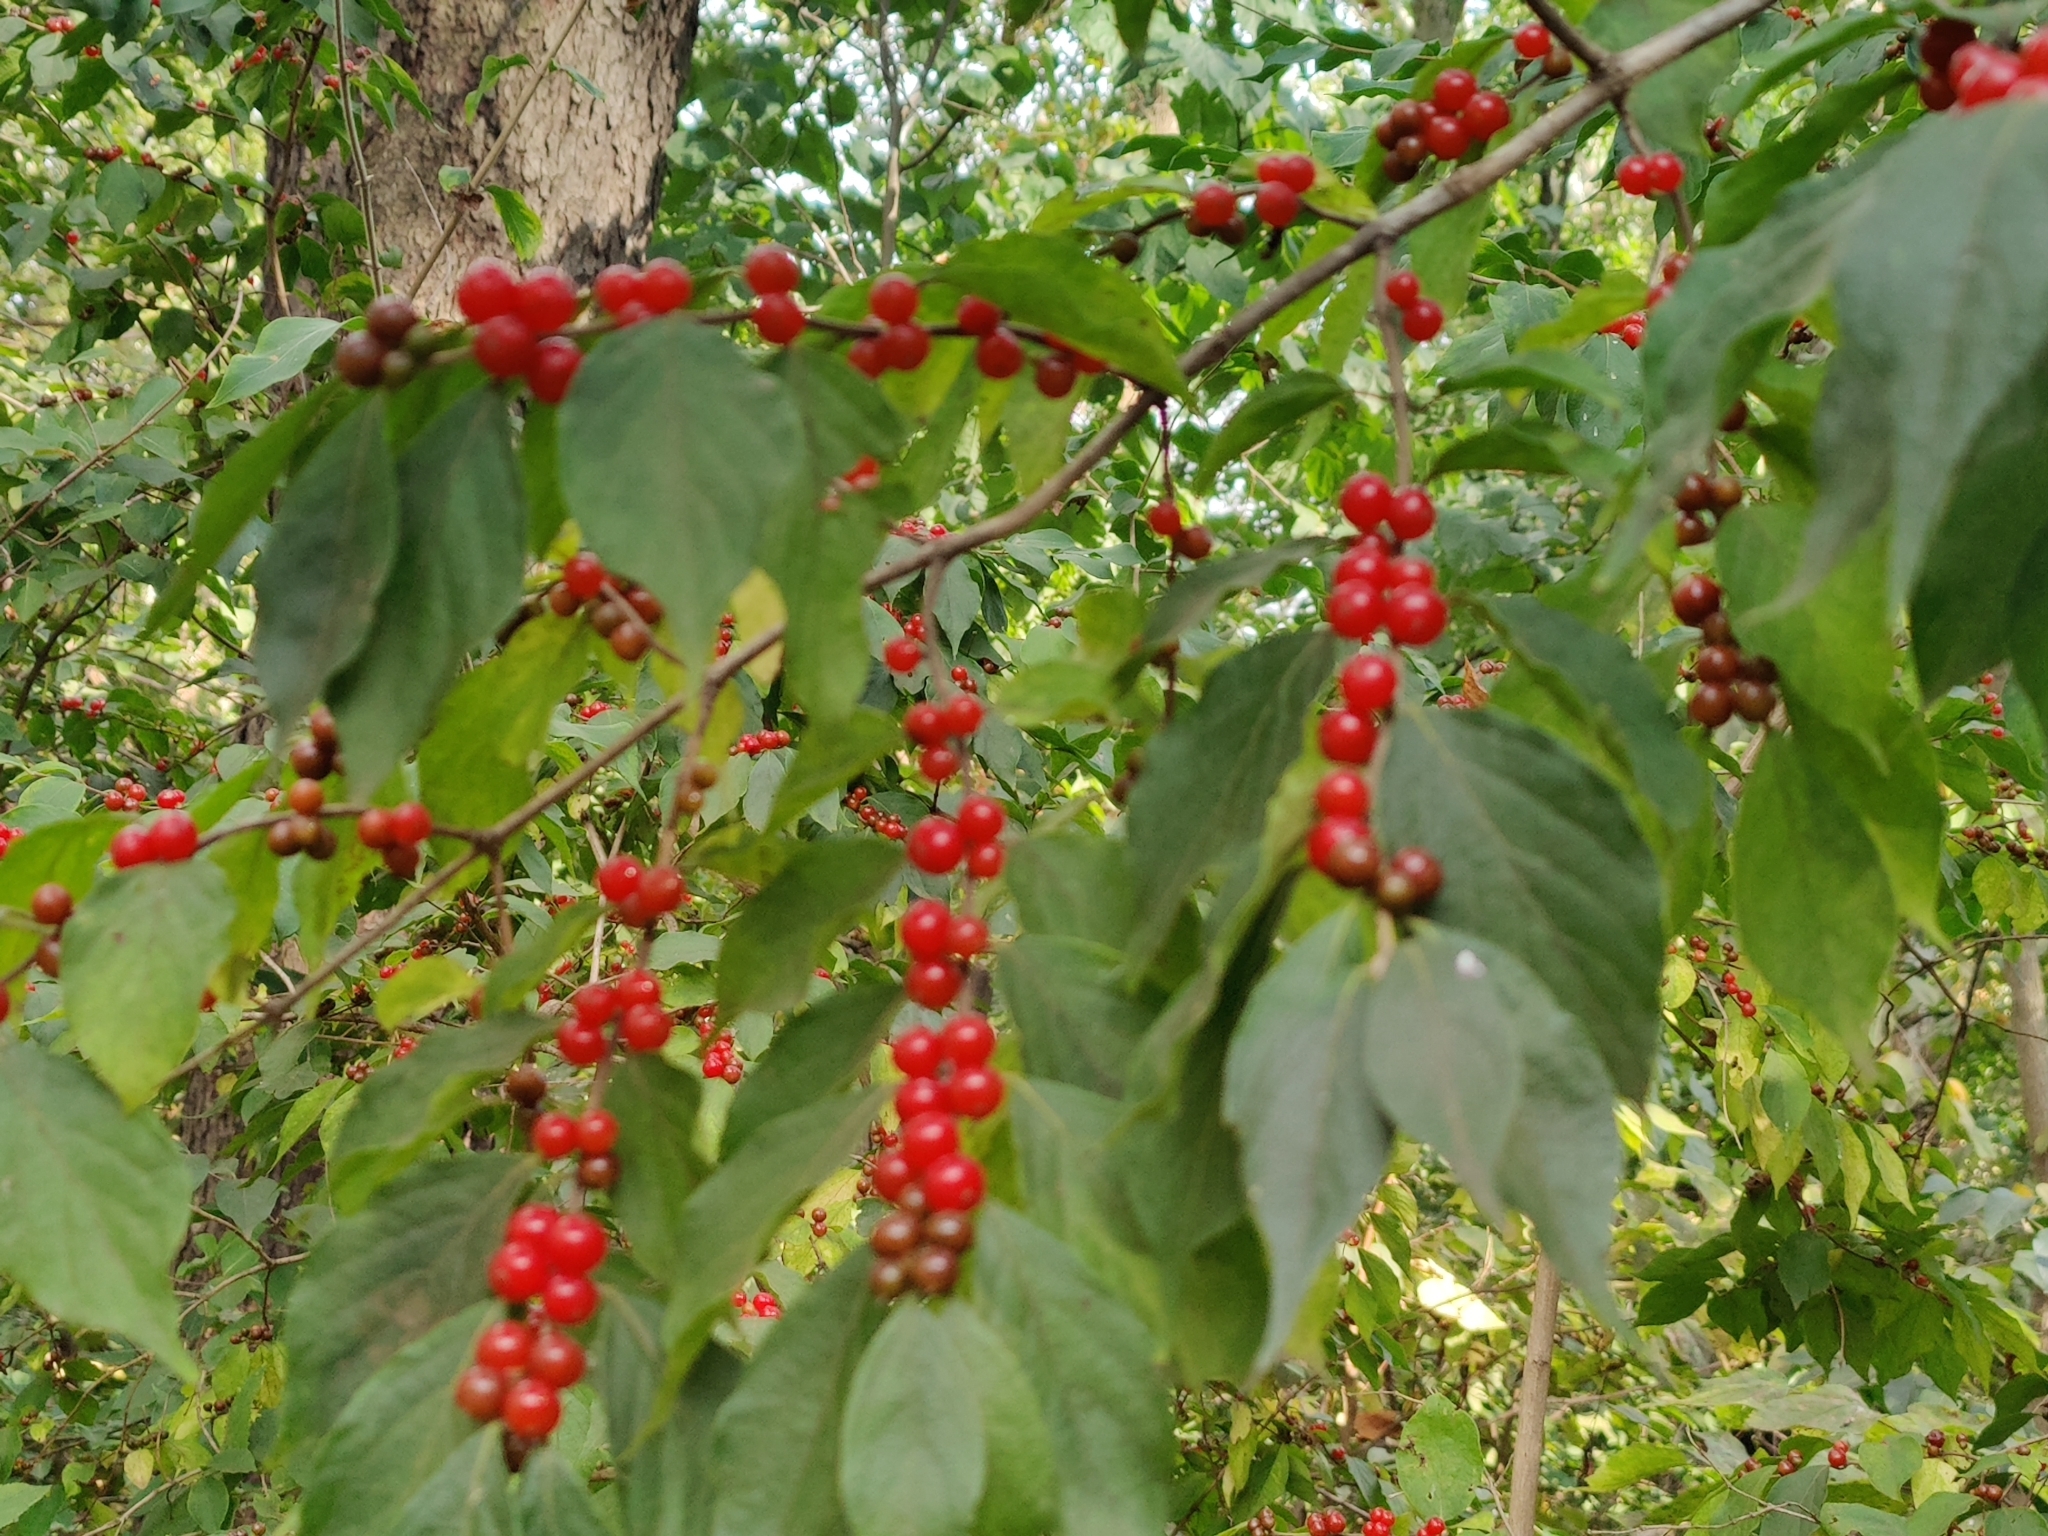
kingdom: Plantae
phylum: Tracheophyta
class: Magnoliopsida
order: Dipsacales
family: Caprifoliaceae
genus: Lonicera
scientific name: Lonicera maackii
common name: Amur honeysuckle
